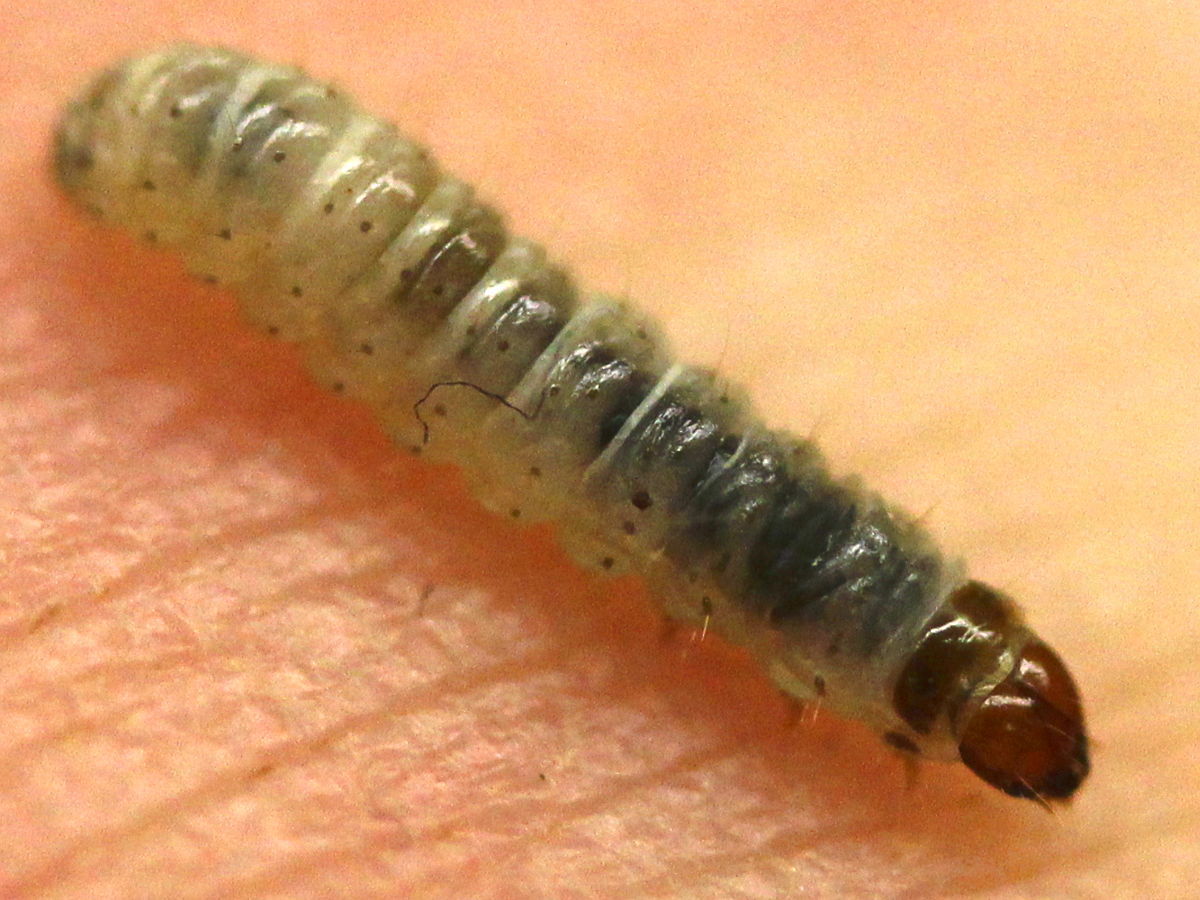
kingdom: Animalia
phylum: Arthropoda
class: Insecta
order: Lepidoptera
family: Blastobasidae
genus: Blastobasis
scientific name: Blastobasis glandulella
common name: Acorn moth
